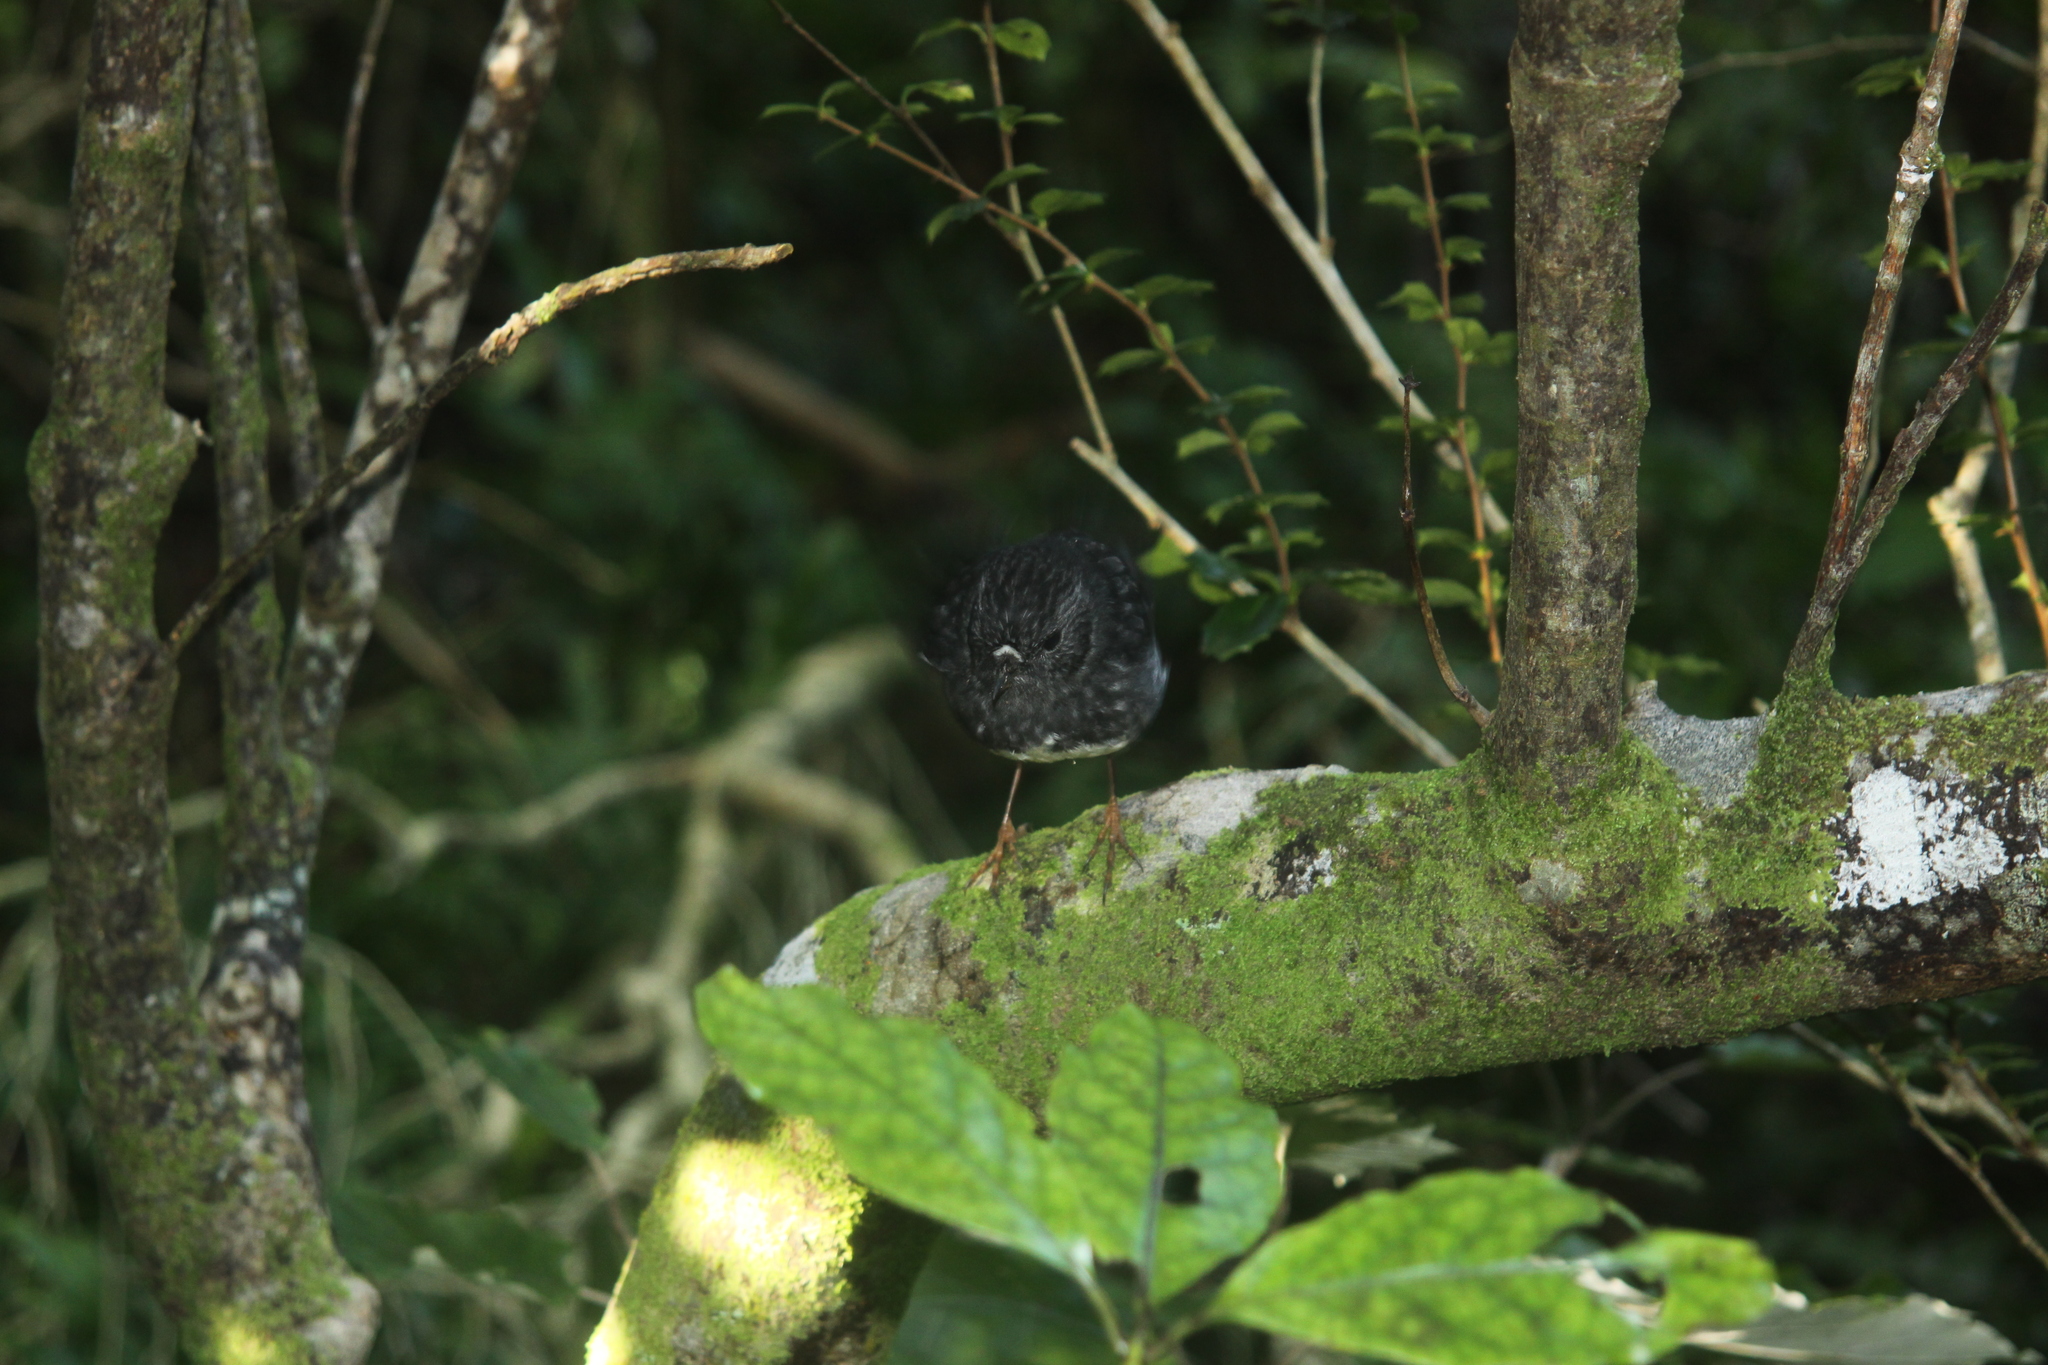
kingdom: Animalia
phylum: Chordata
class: Aves
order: Passeriformes
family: Petroicidae
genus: Petroica
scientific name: Petroica australis
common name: New zealand robin
